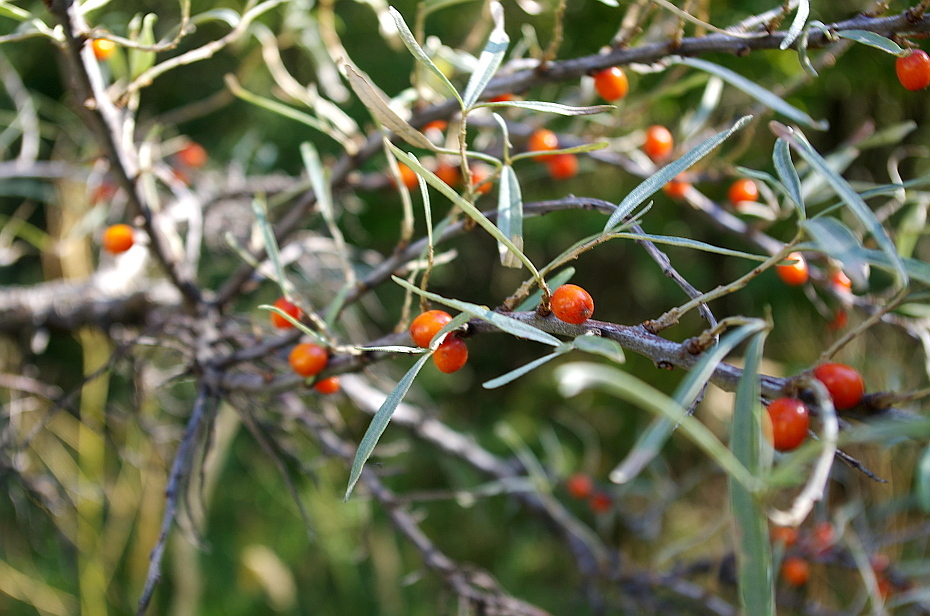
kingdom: Plantae
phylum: Tracheophyta
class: Magnoliopsida
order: Rosales
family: Elaeagnaceae
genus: Hippophae
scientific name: Hippophae rhamnoides
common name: Sea-buckthorn
